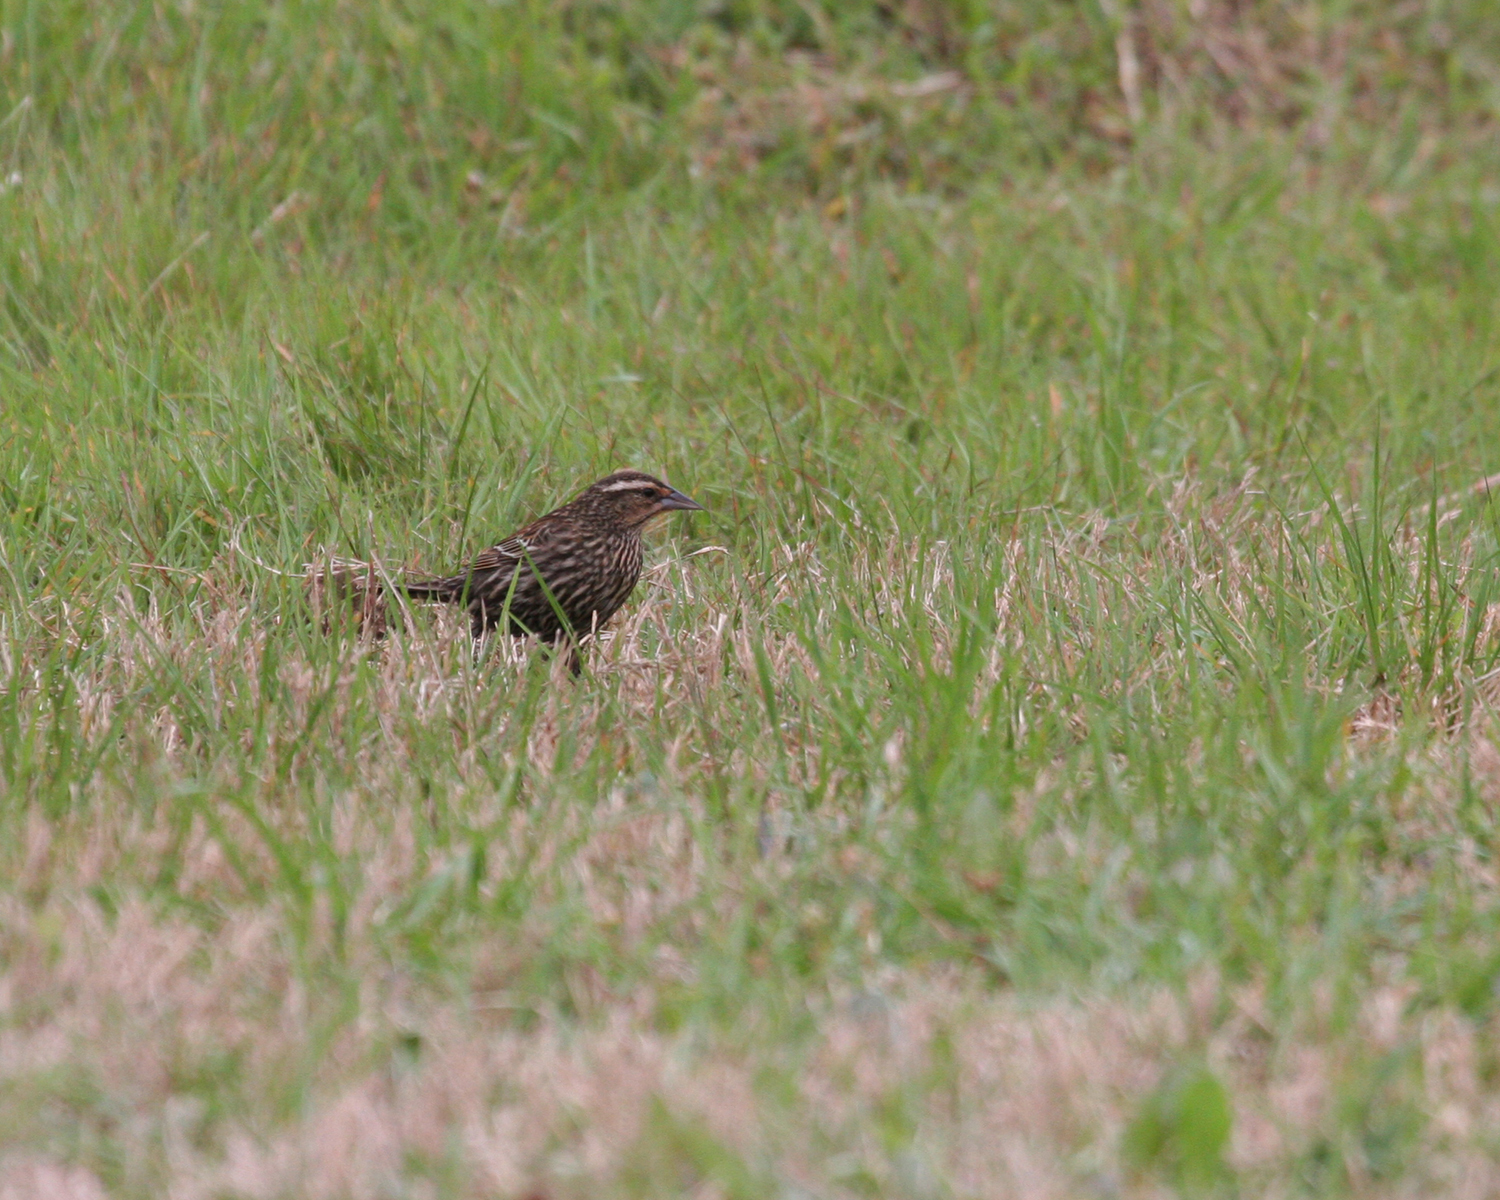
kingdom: Animalia
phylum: Chordata
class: Aves
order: Passeriformes
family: Icteridae
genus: Agelaius
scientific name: Agelaius phoeniceus
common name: Red-winged blackbird
